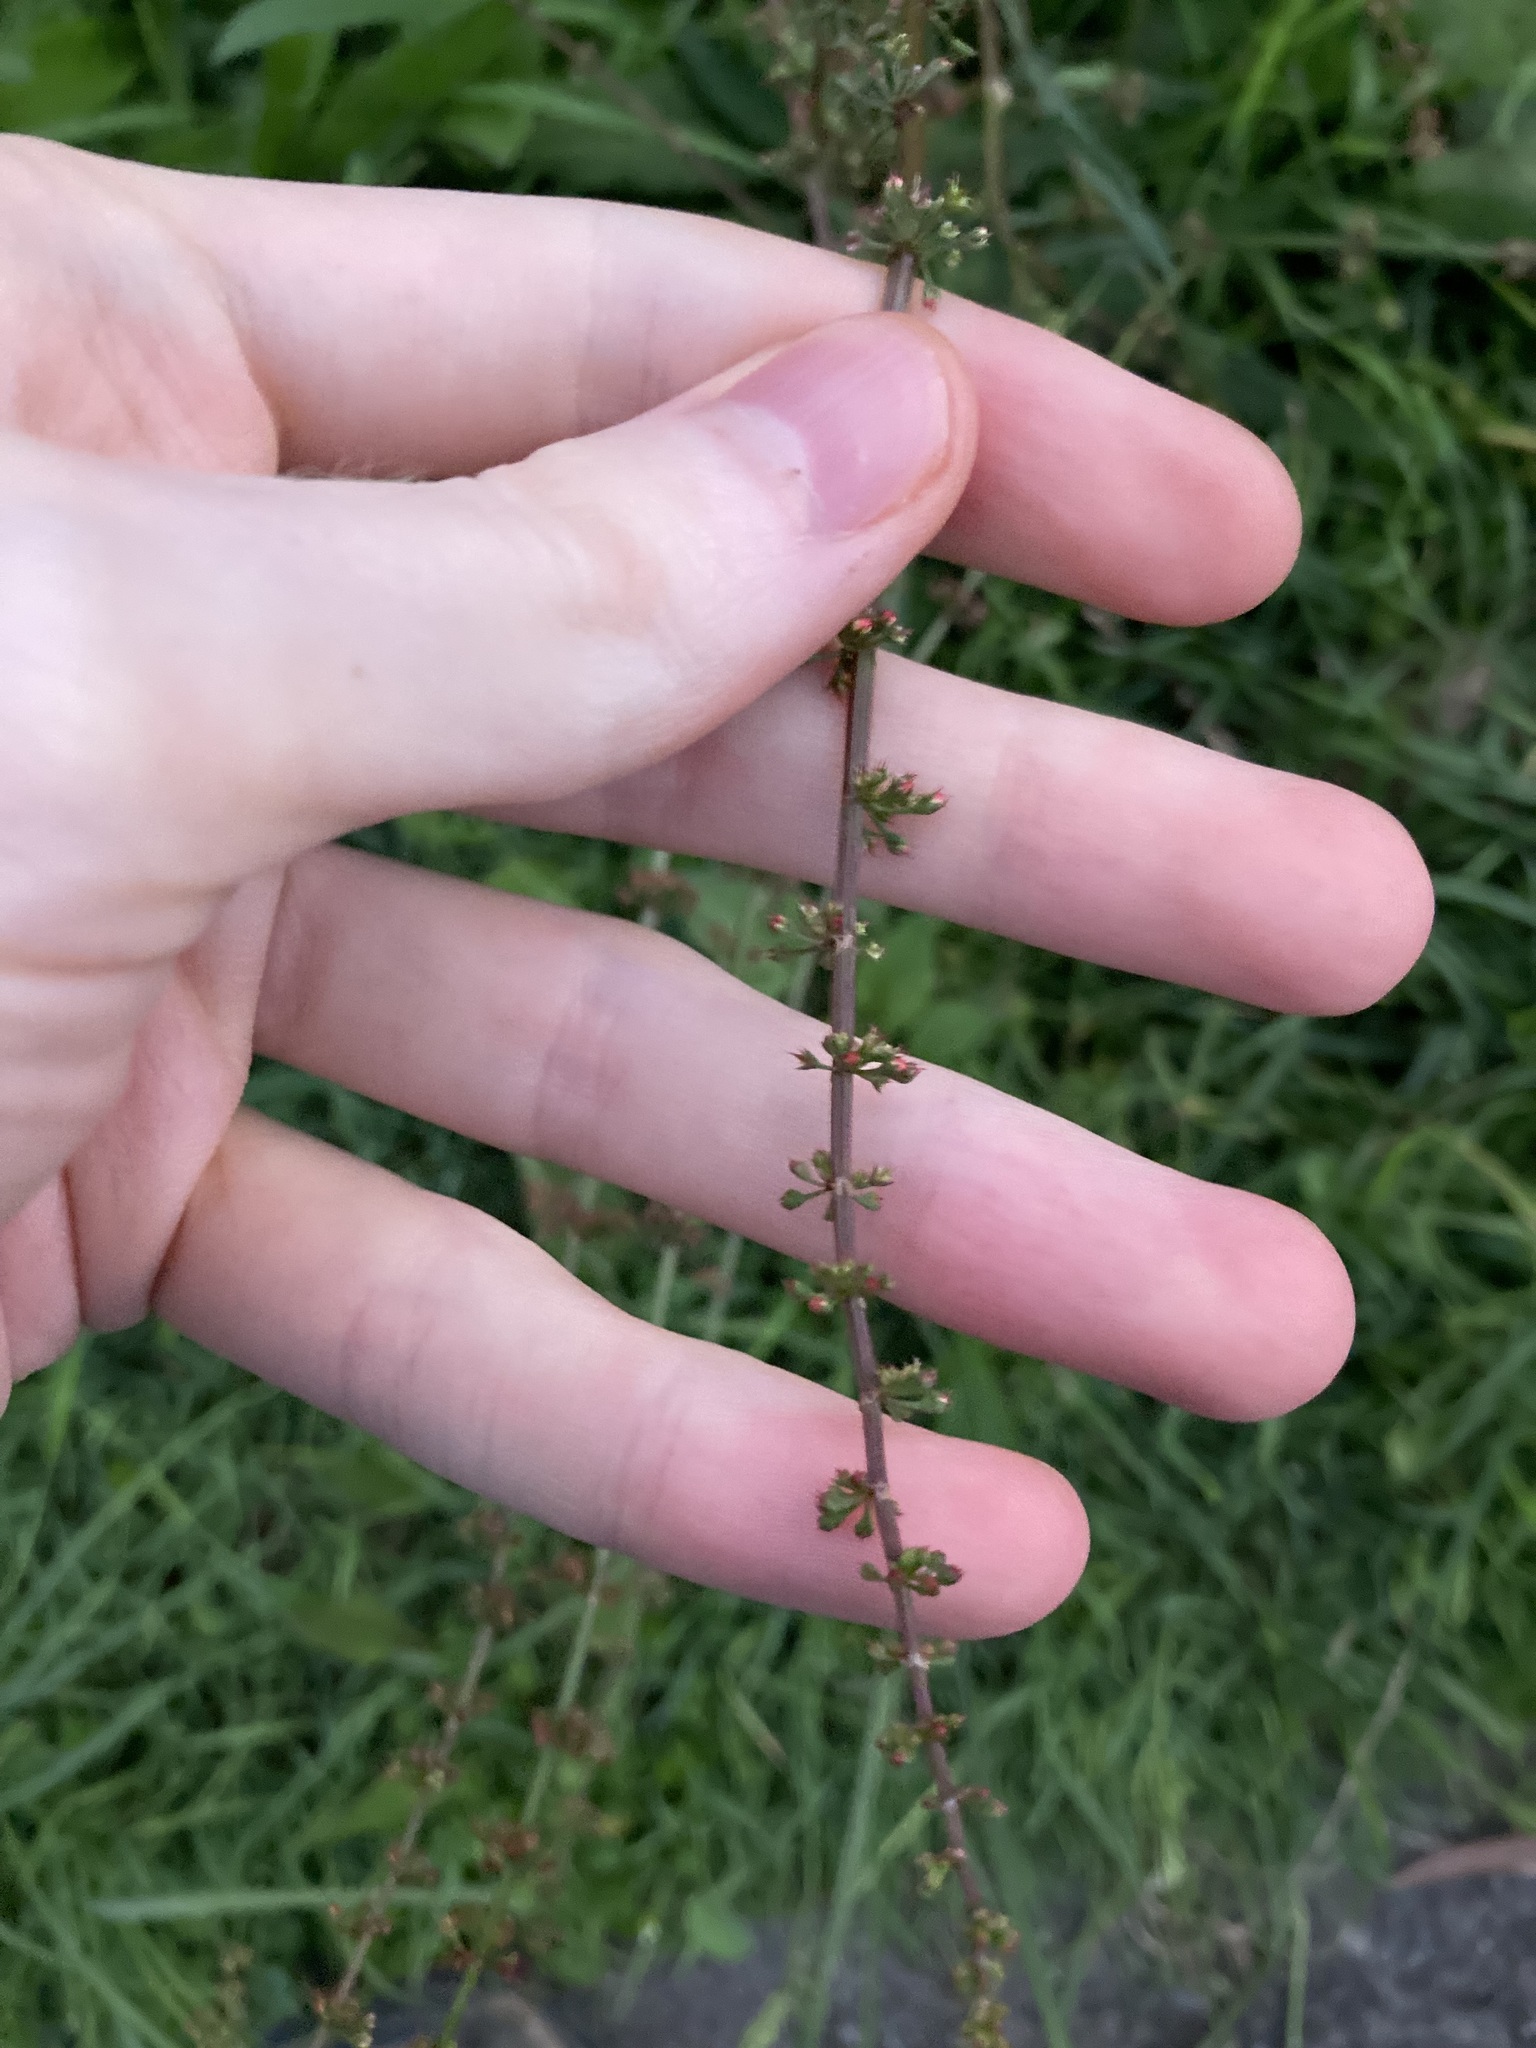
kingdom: Plantae
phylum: Tracheophyta
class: Magnoliopsida
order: Caryophyllales
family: Polygonaceae
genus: Rumex
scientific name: Rumex brownii
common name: Hooked dock
